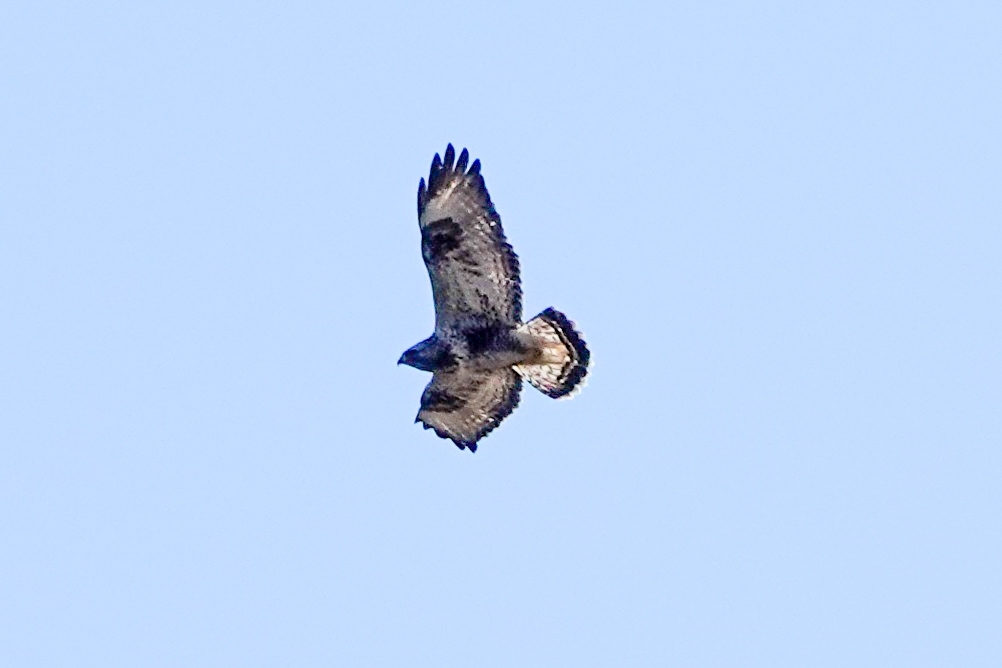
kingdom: Animalia
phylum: Chordata
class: Aves
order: Accipitriformes
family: Accipitridae
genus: Buteo
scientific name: Buteo lagopus
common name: Rough-legged buzzard
